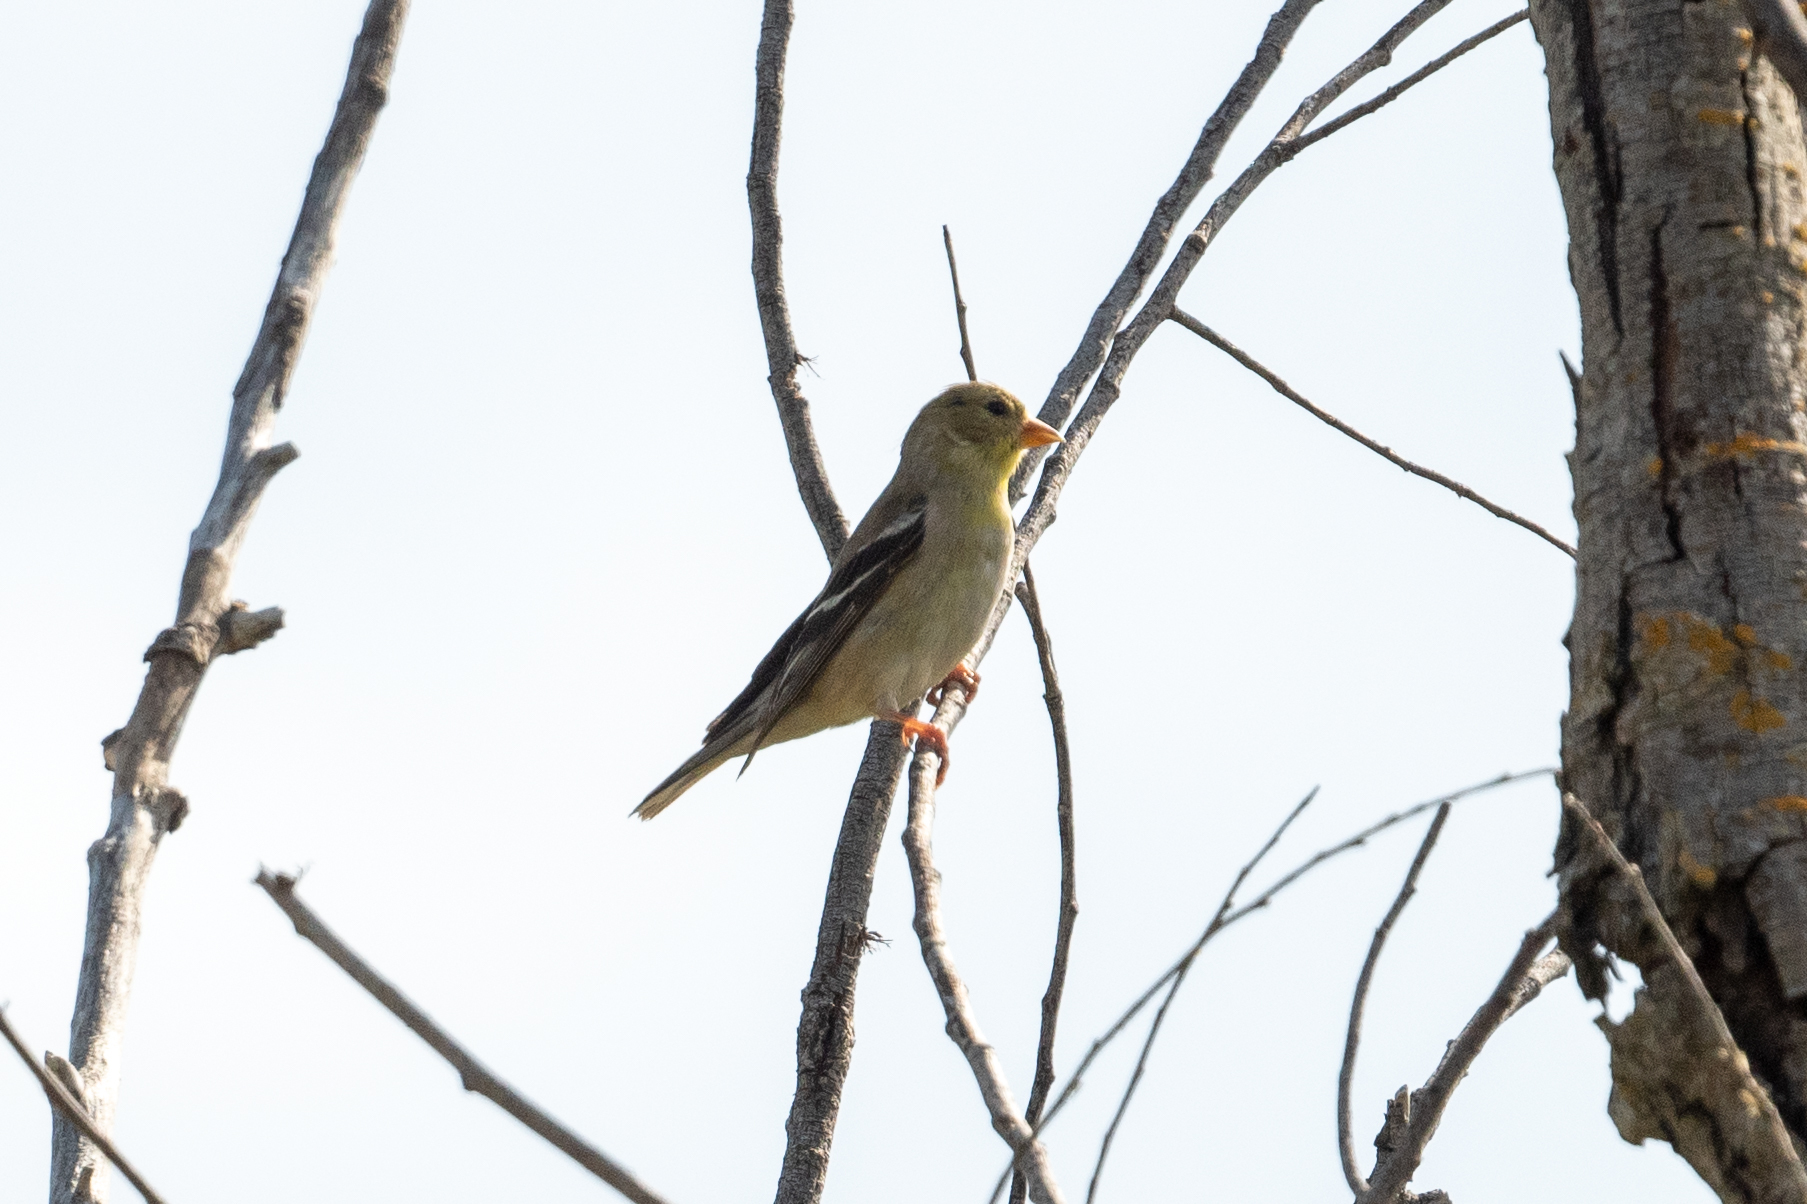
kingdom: Animalia
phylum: Chordata
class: Aves
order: Passeriformes
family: Fringillidae
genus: Spinus
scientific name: Spinus tristis
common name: American goldfinch
